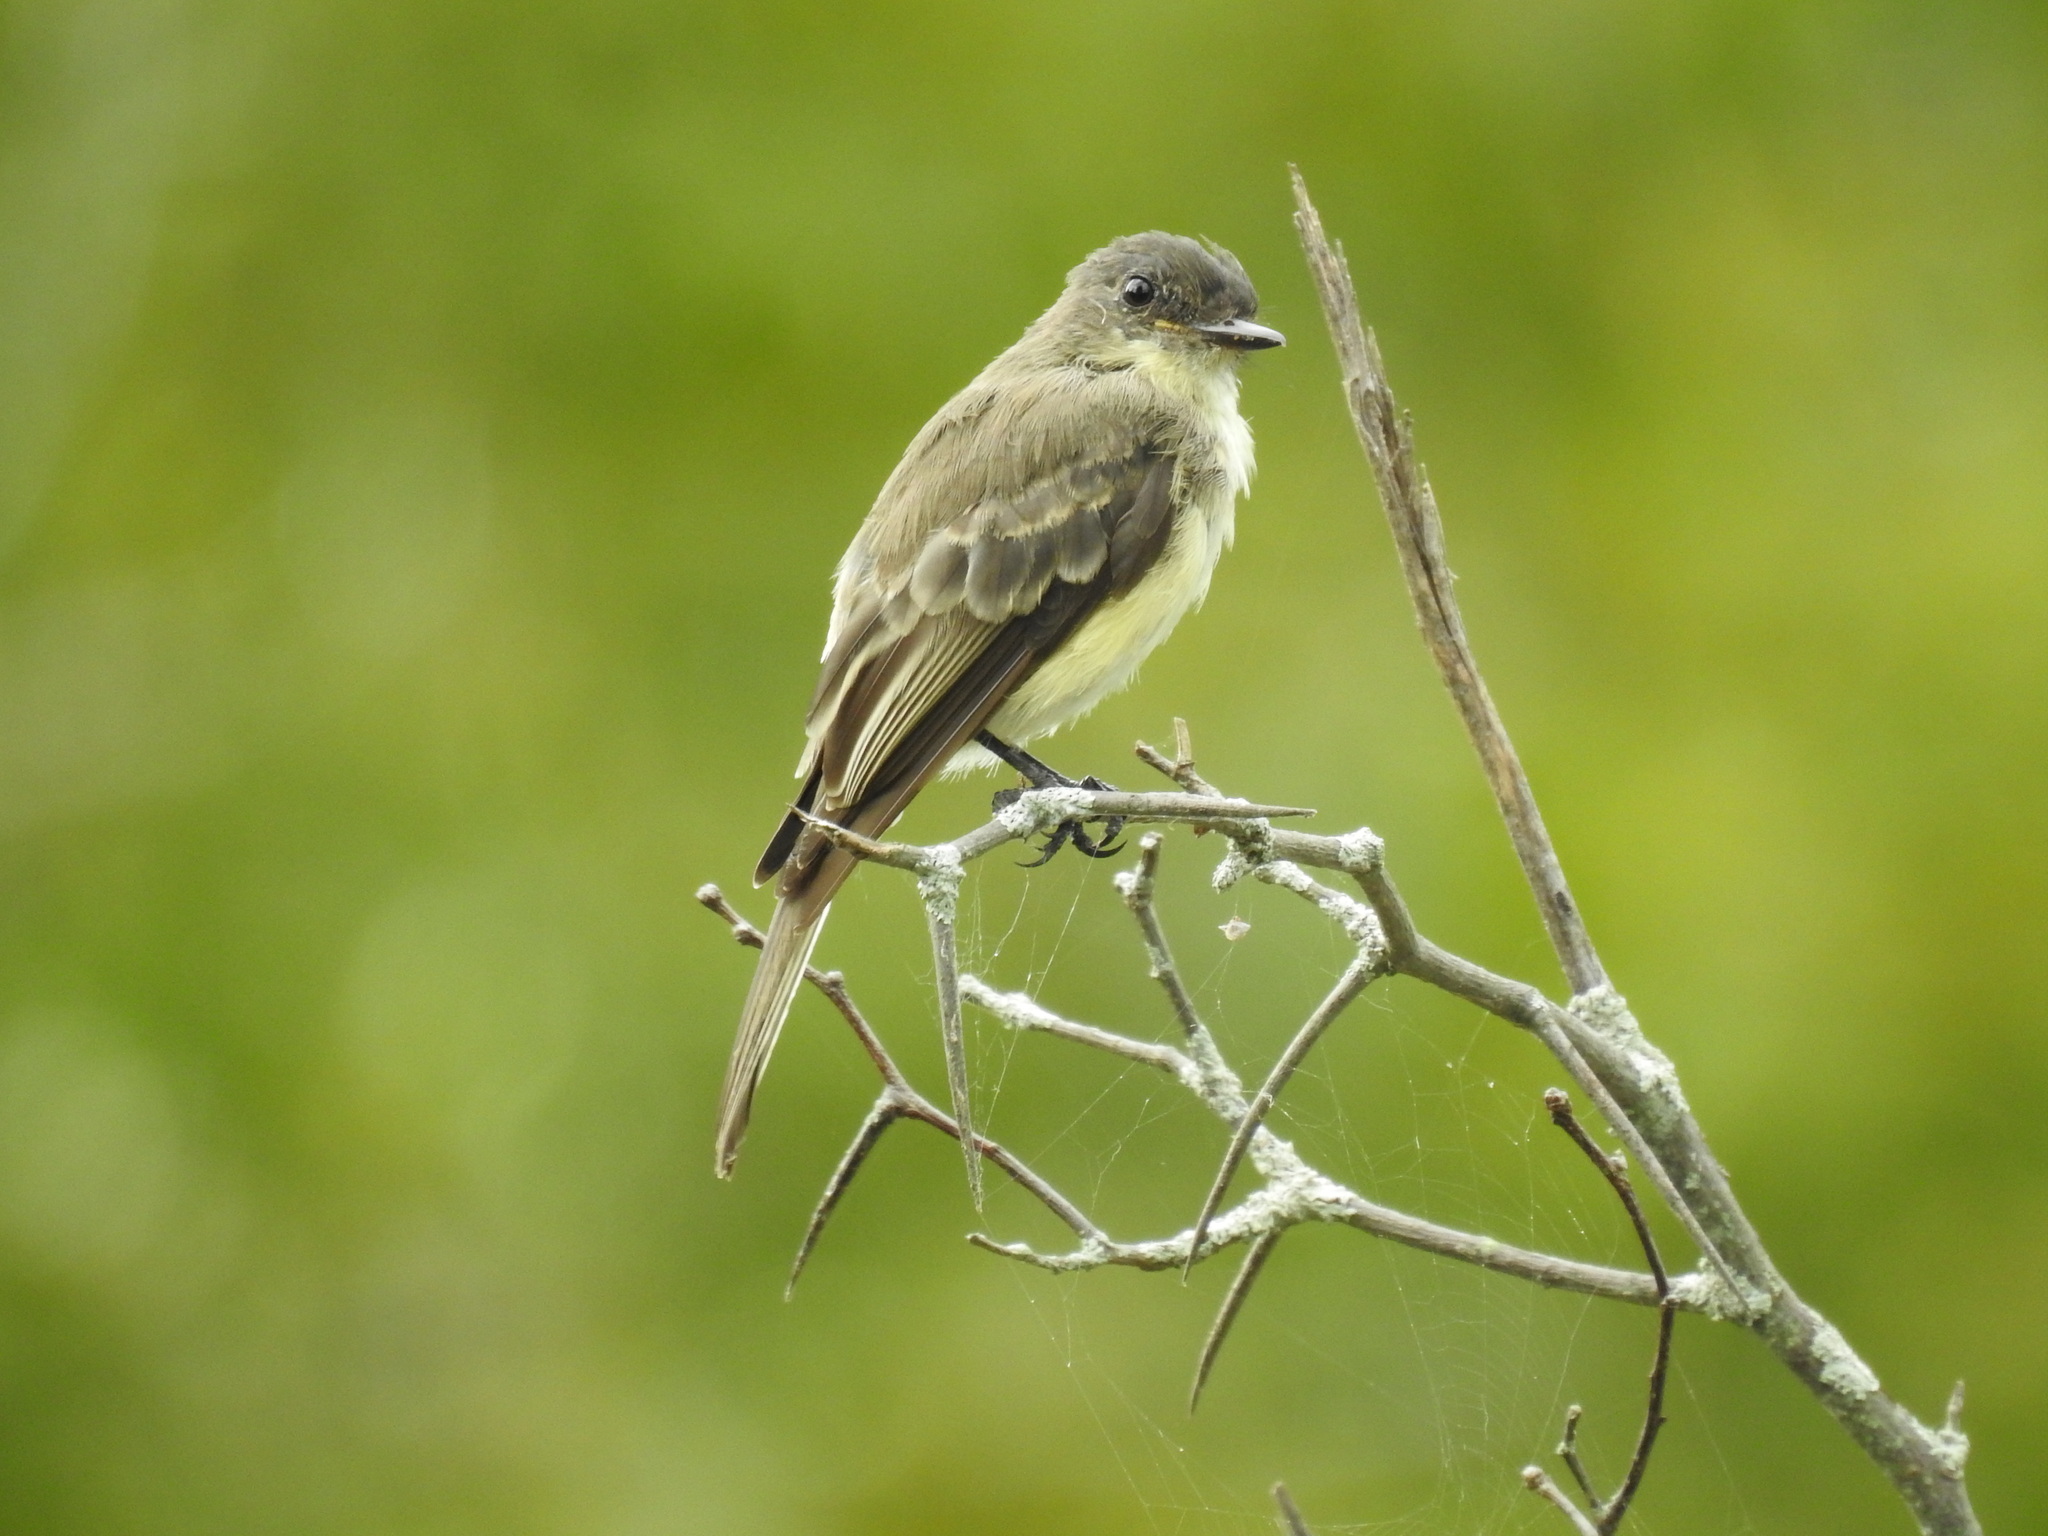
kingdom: Animalia
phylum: Chordata
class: Aves
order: Passeriformes
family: Tyrannidae
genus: Sayornis
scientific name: Sayornis phoebe
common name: Eastern phoebe
